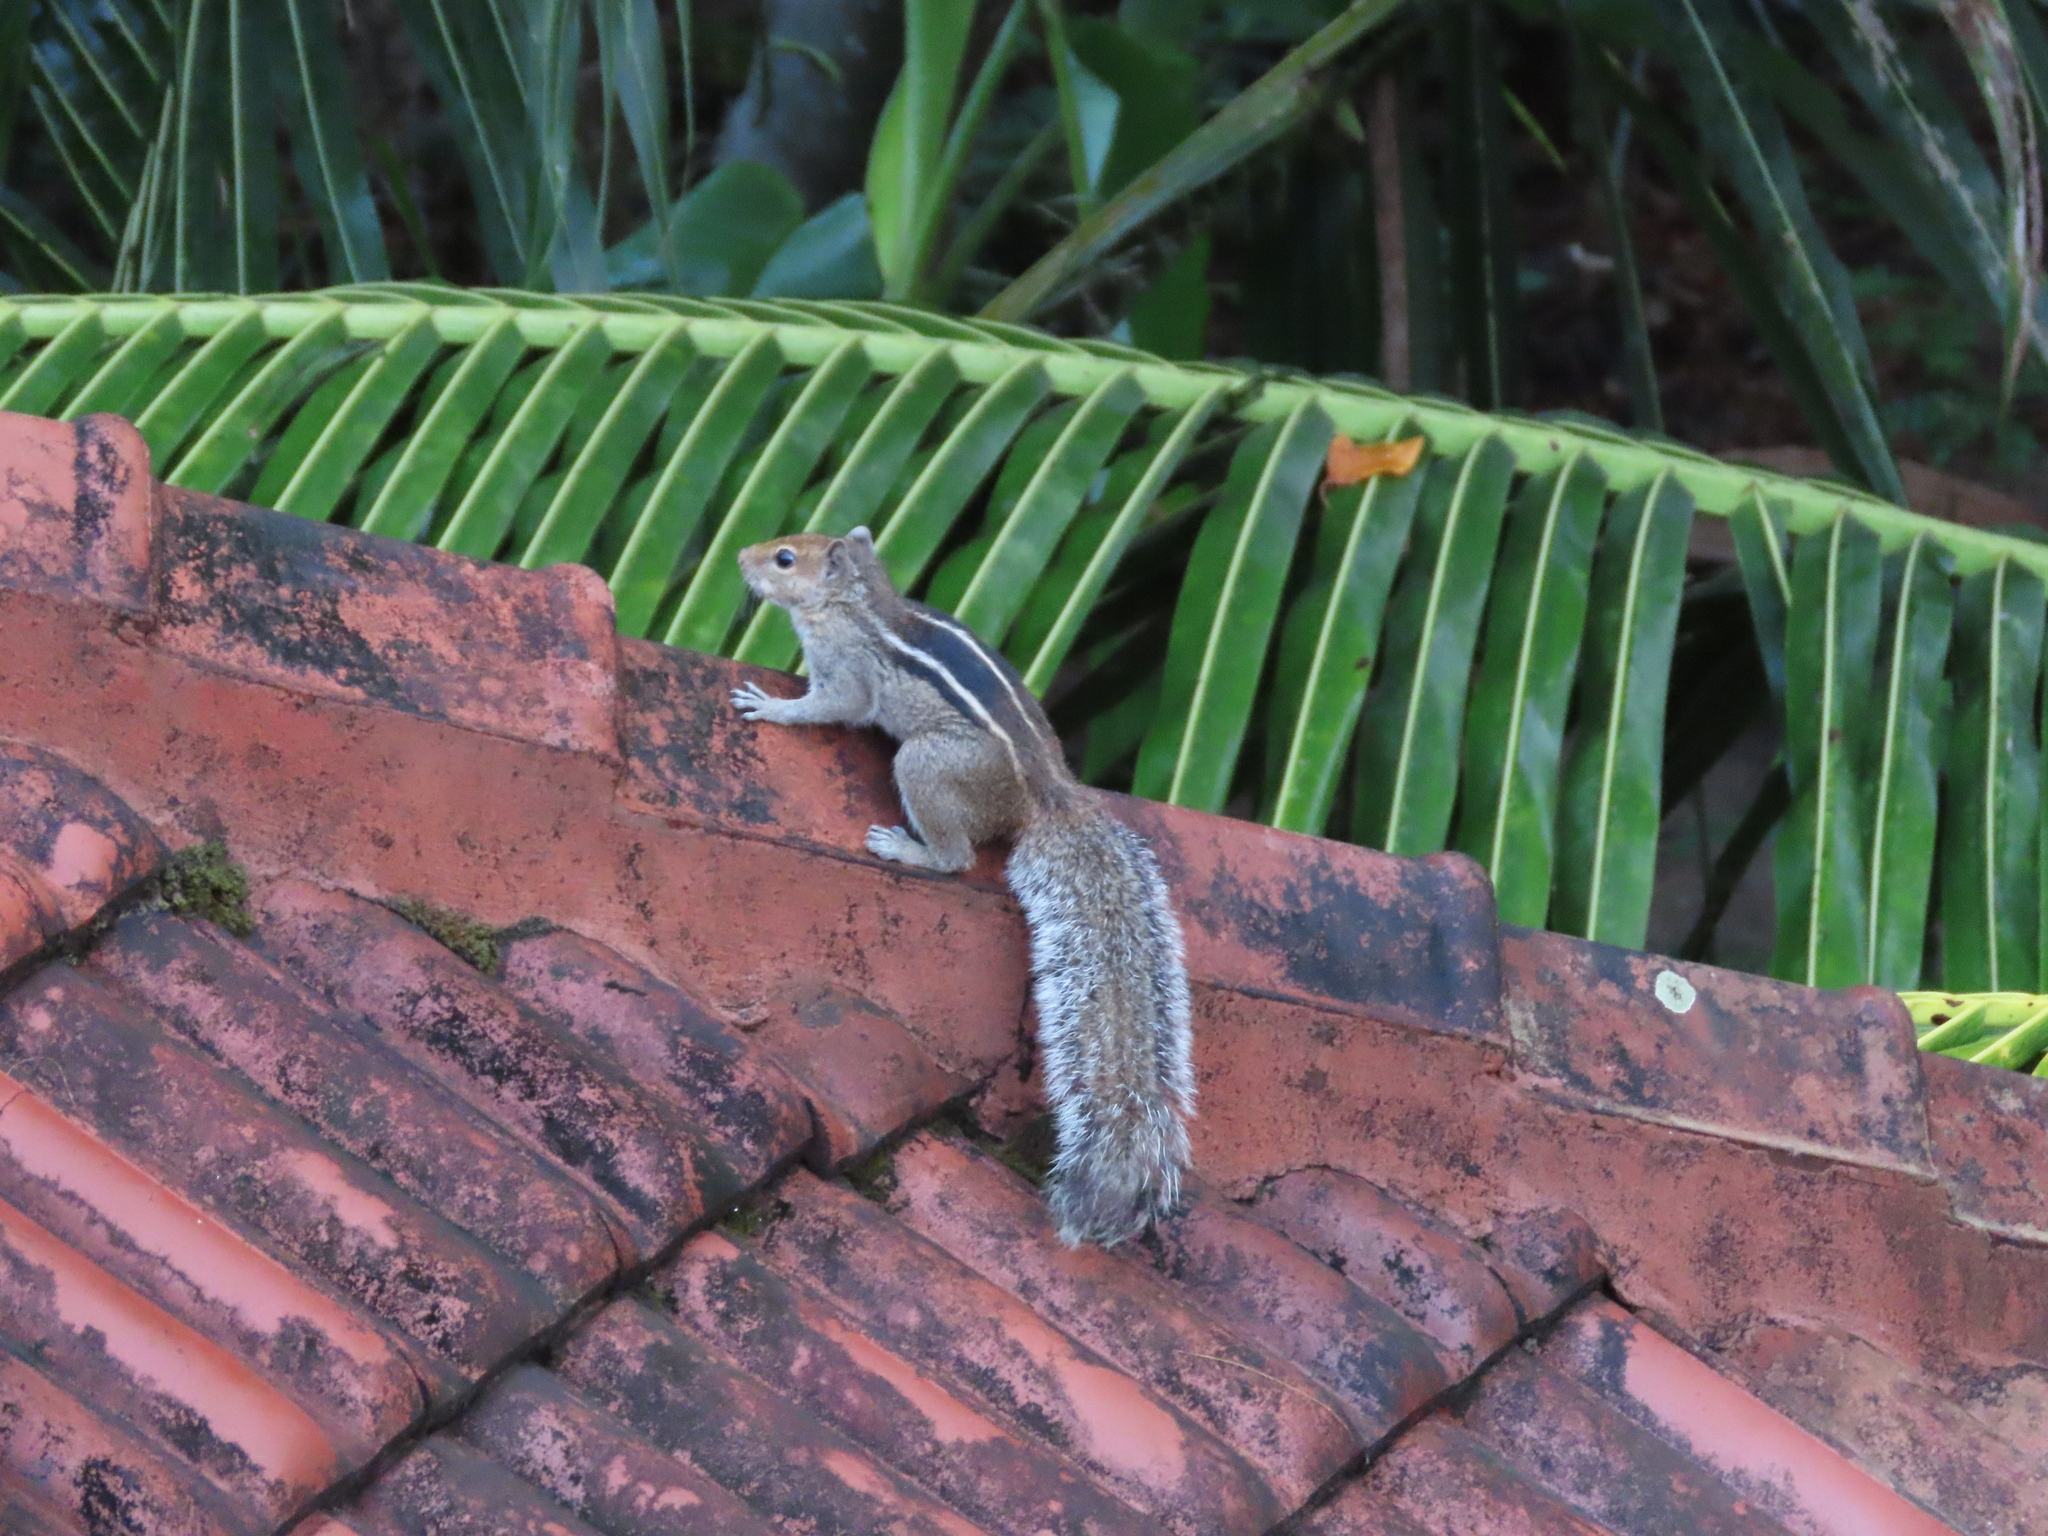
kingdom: Animalia
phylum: Chordata
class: Mammalia
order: Rodentia
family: Sciuridae
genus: Funambulus
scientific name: Funambulus tristriatus
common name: Jungle palm squirrel
